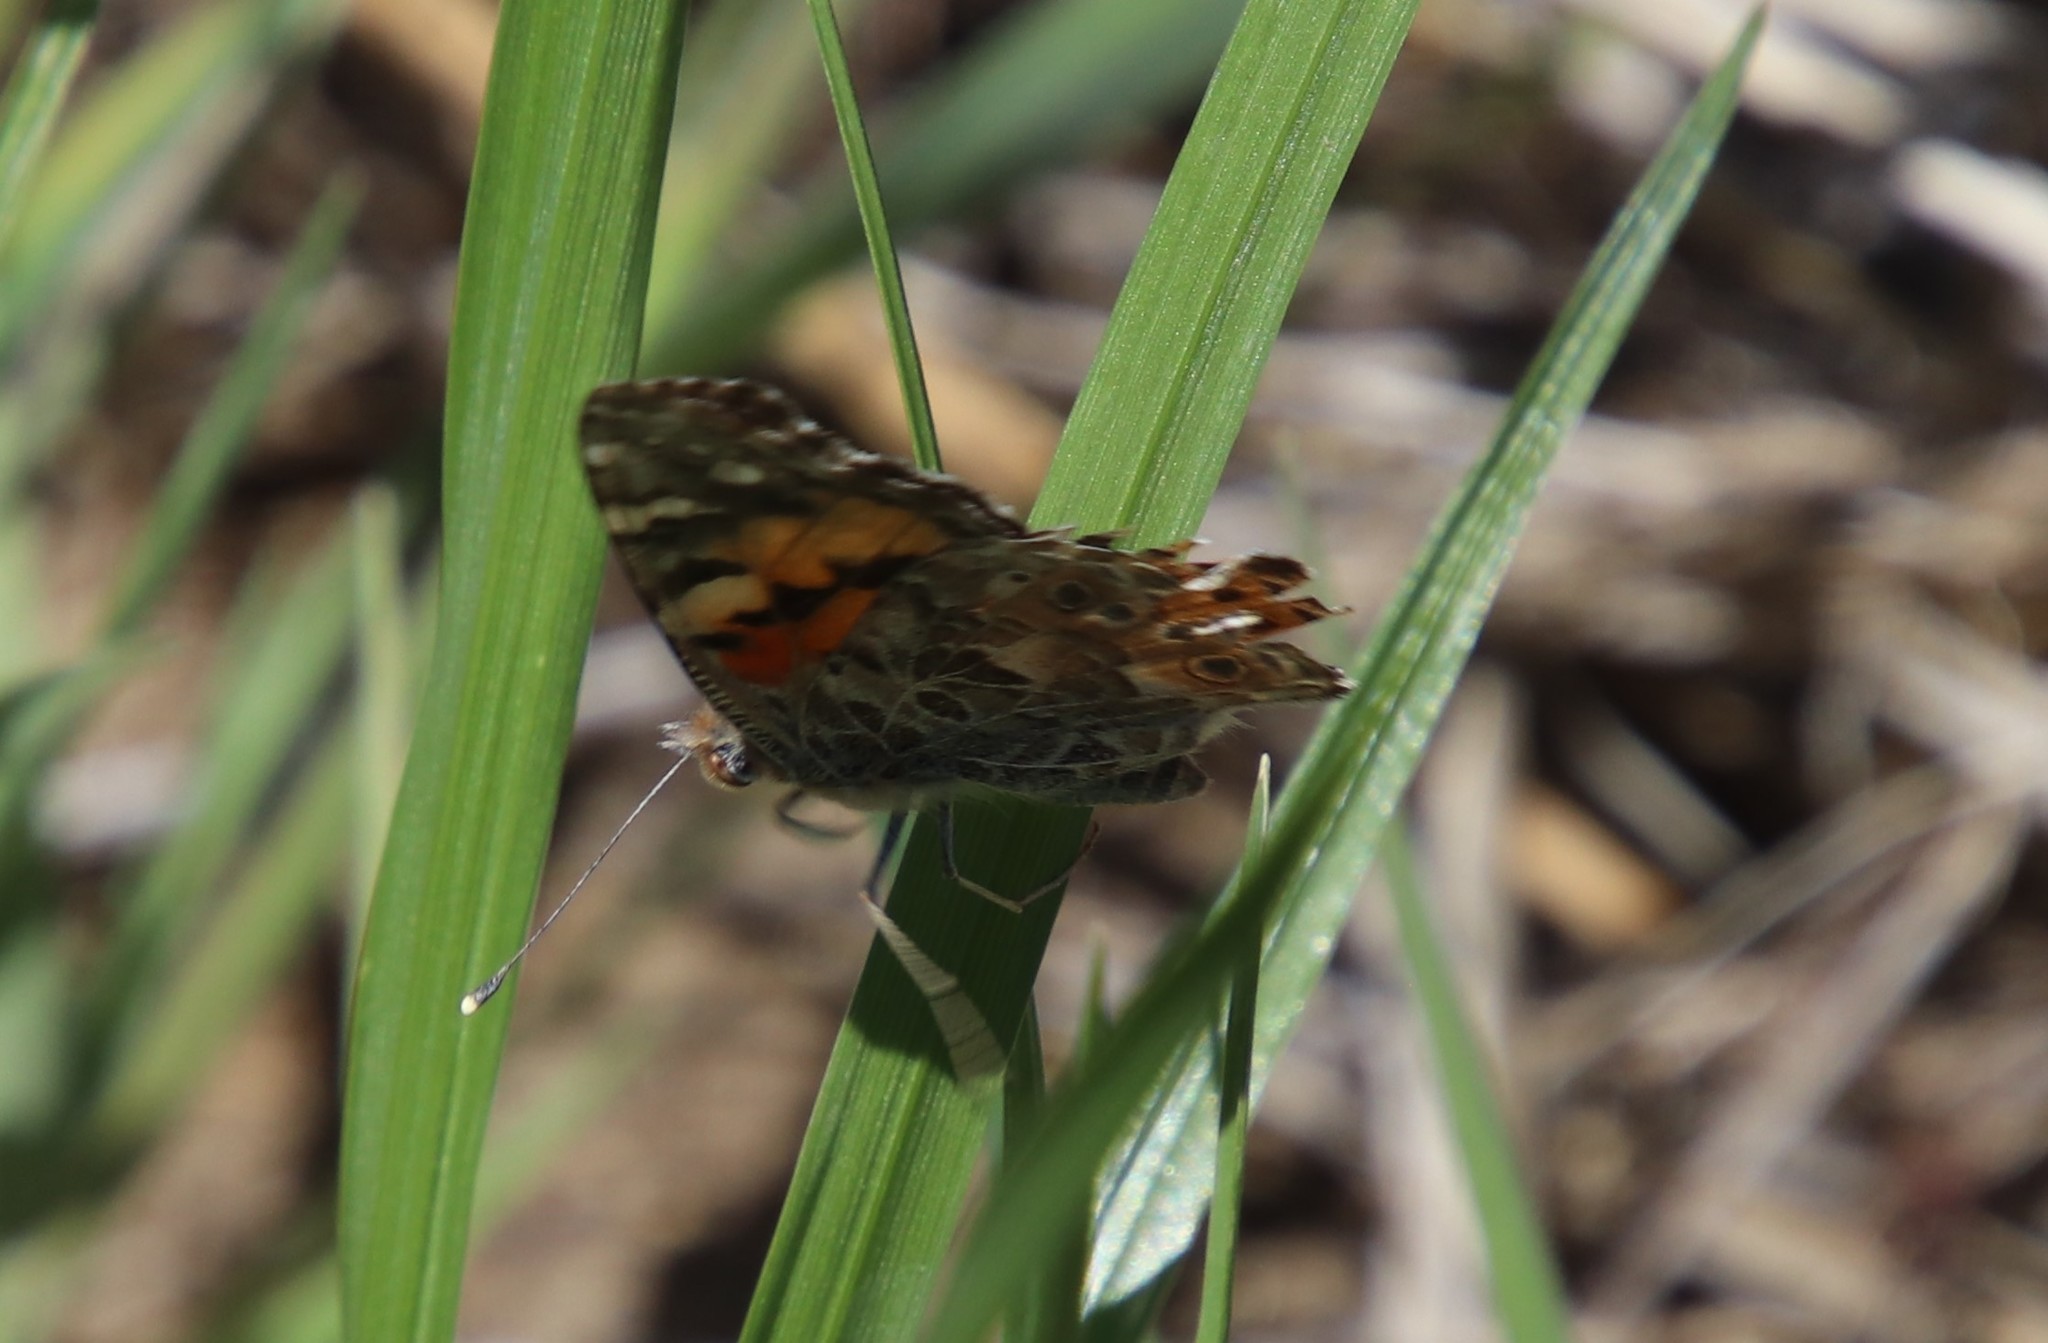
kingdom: Animalia
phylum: Arthropoda
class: Insecta
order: Lepidoptera
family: Nymphalidae
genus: Vanessa
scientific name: Vanessa cardui
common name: Painted lady
